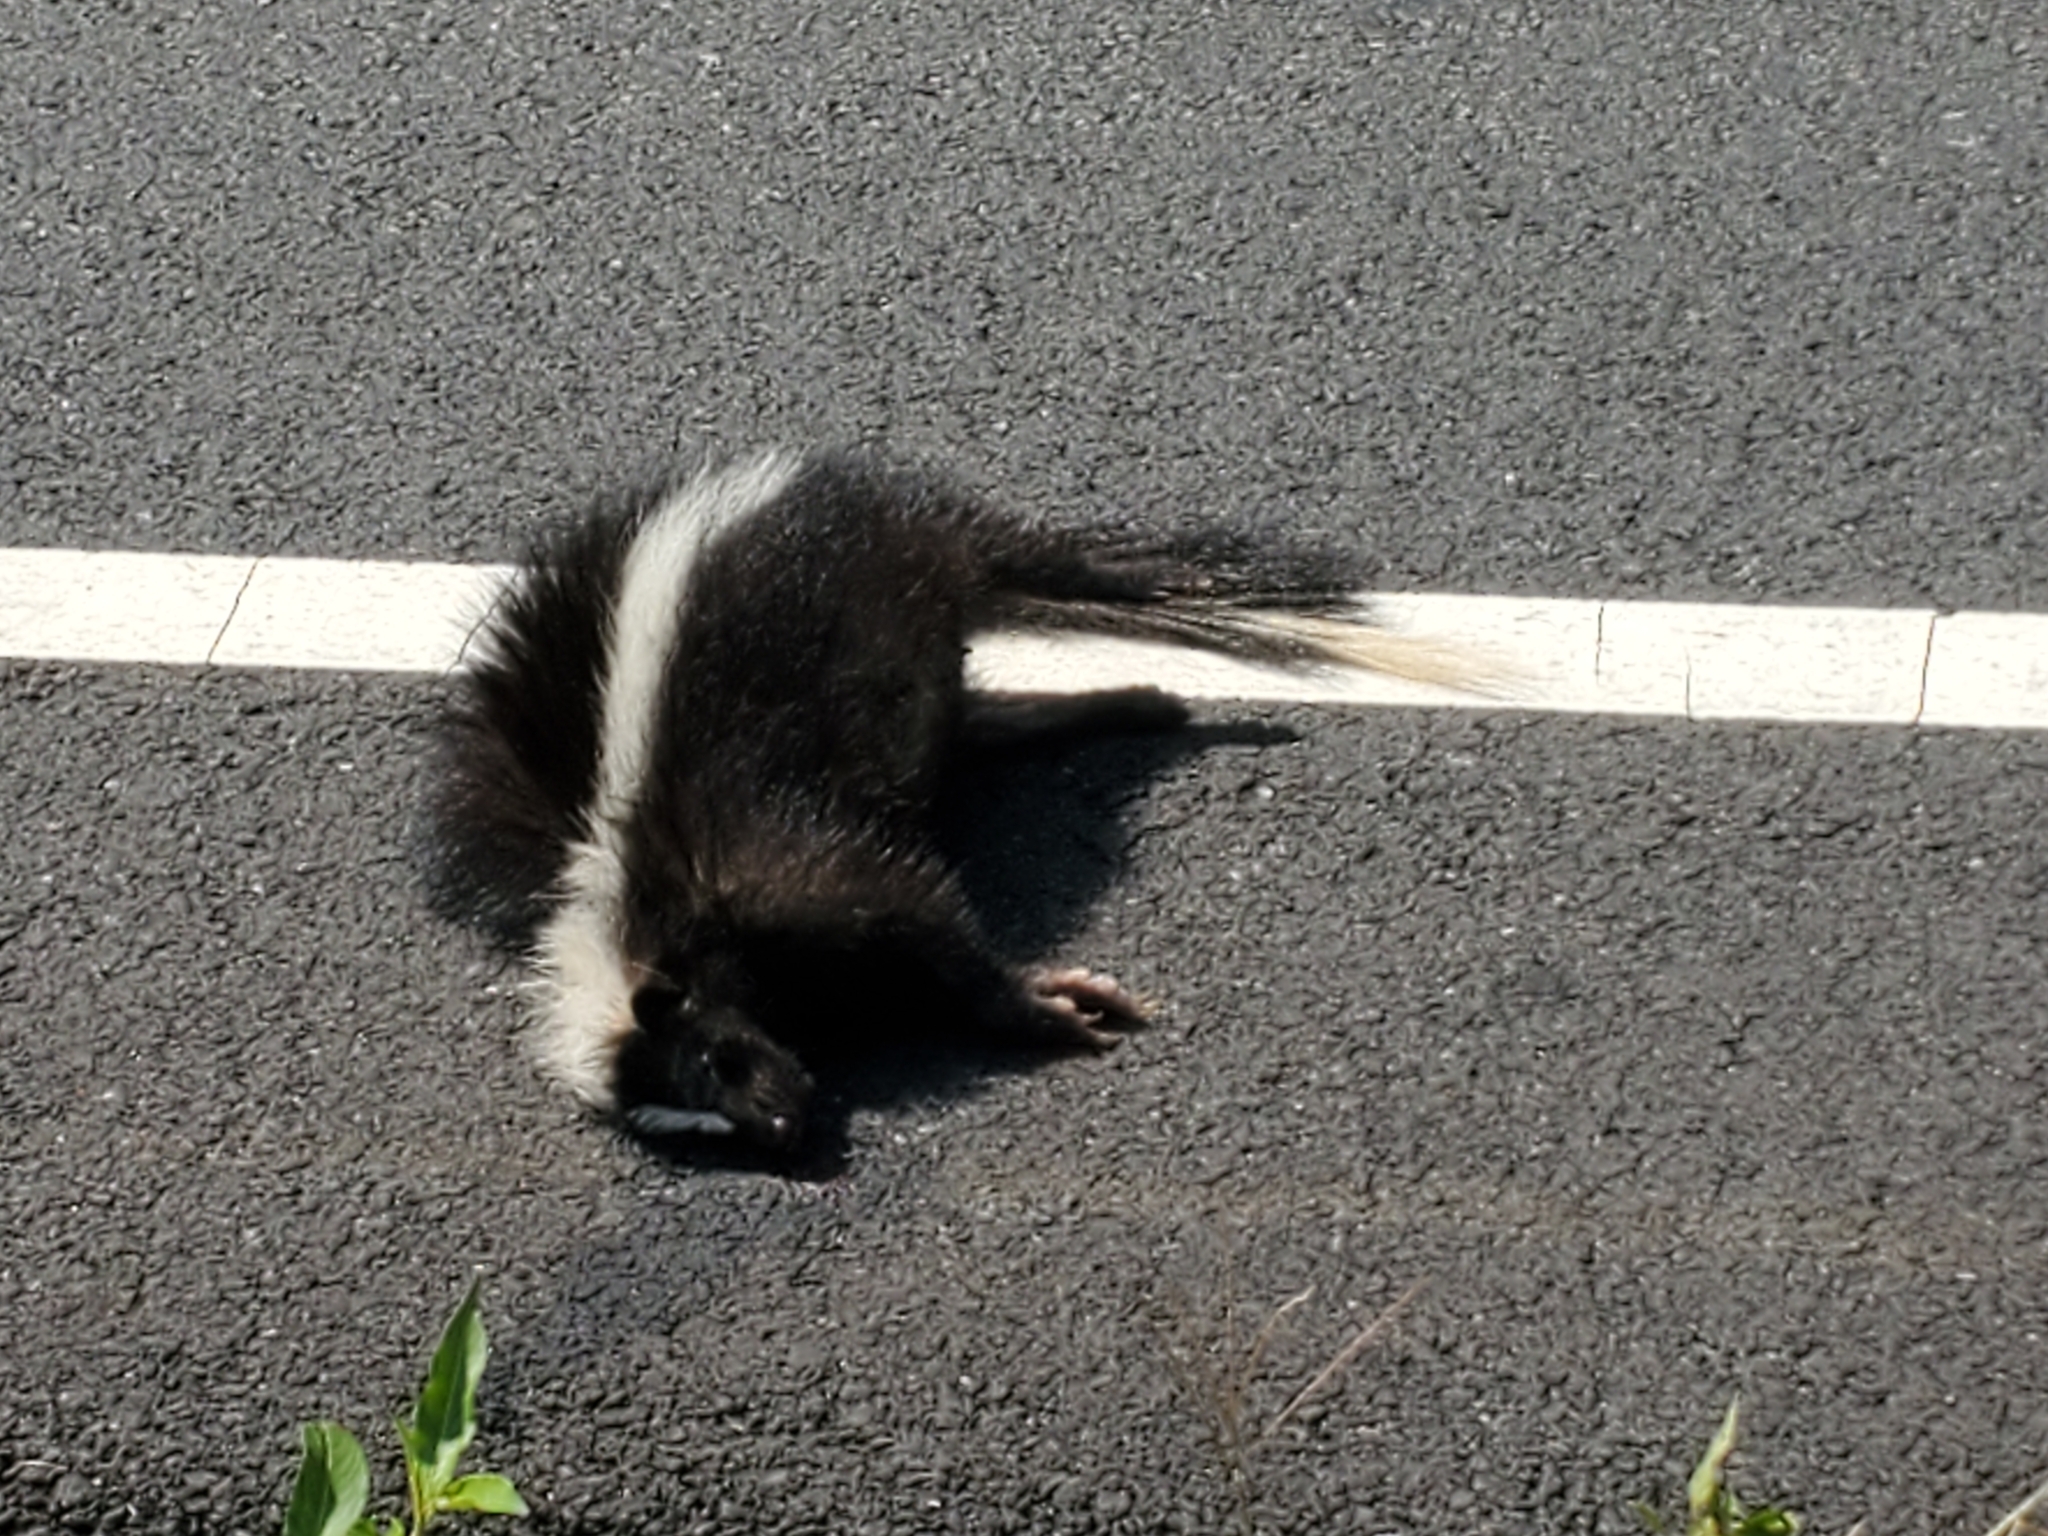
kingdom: Animalia
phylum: Chordata
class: Mammalia
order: Carnivora
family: Mephitidae
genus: Mephitis
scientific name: Mephitis mephitis
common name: Striped skunk
